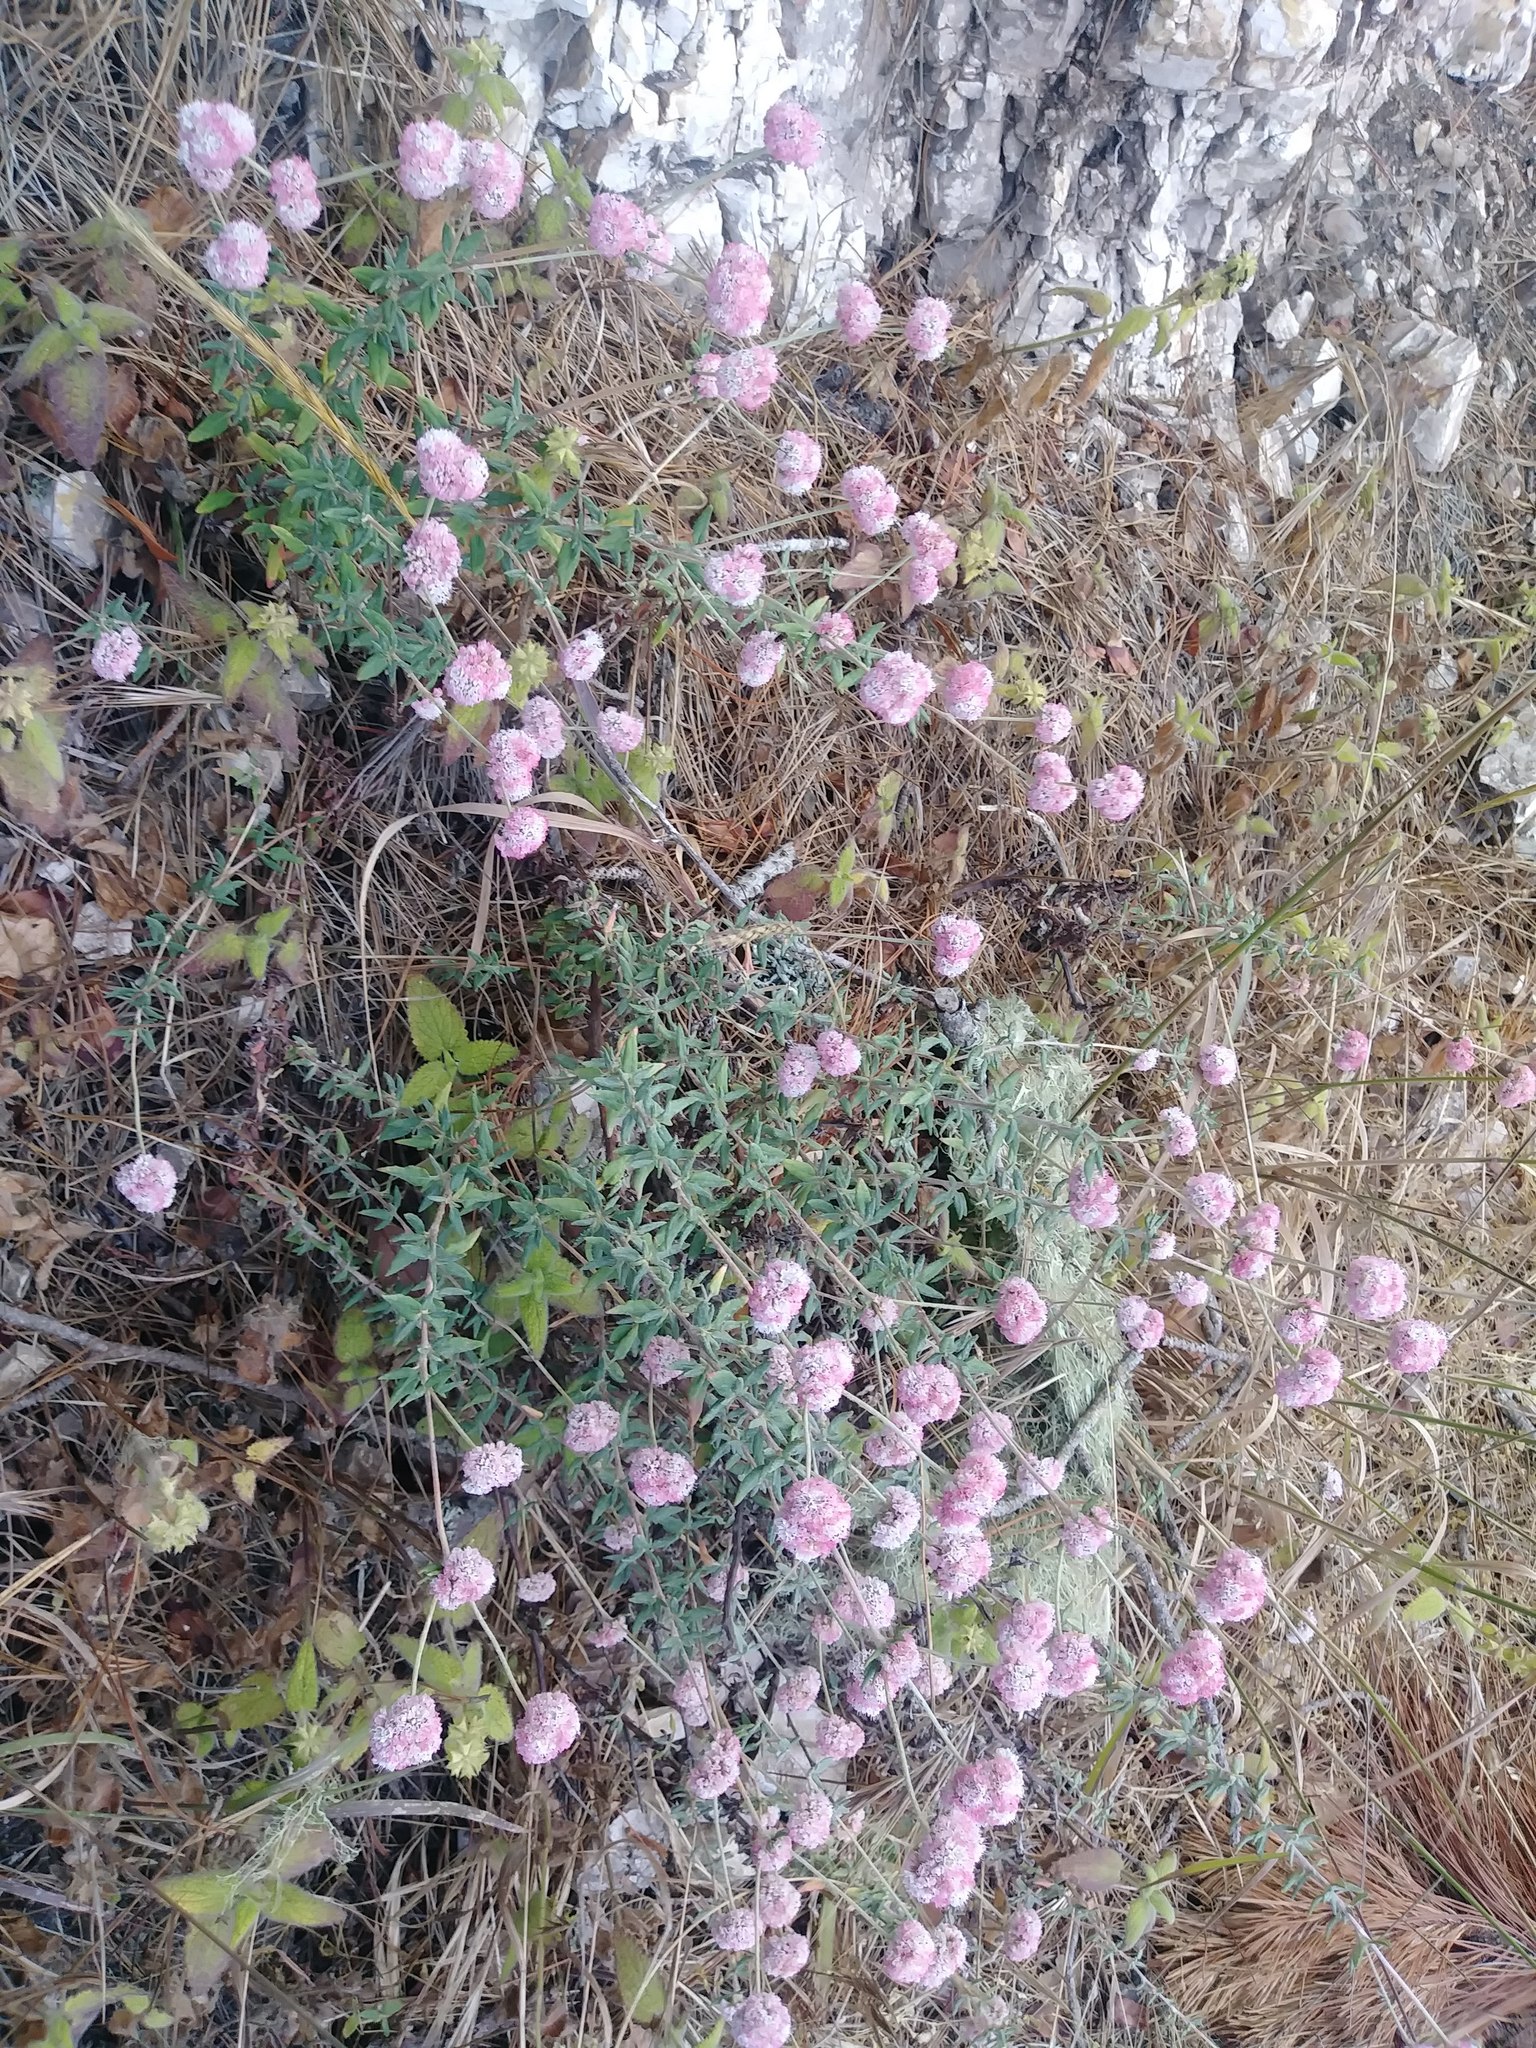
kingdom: Plantae
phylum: Tracheophyta
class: Magnoliopsida
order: Caryophyllales
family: Polygonaceae
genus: Eriogonum
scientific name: Eriogonum parvifolium
